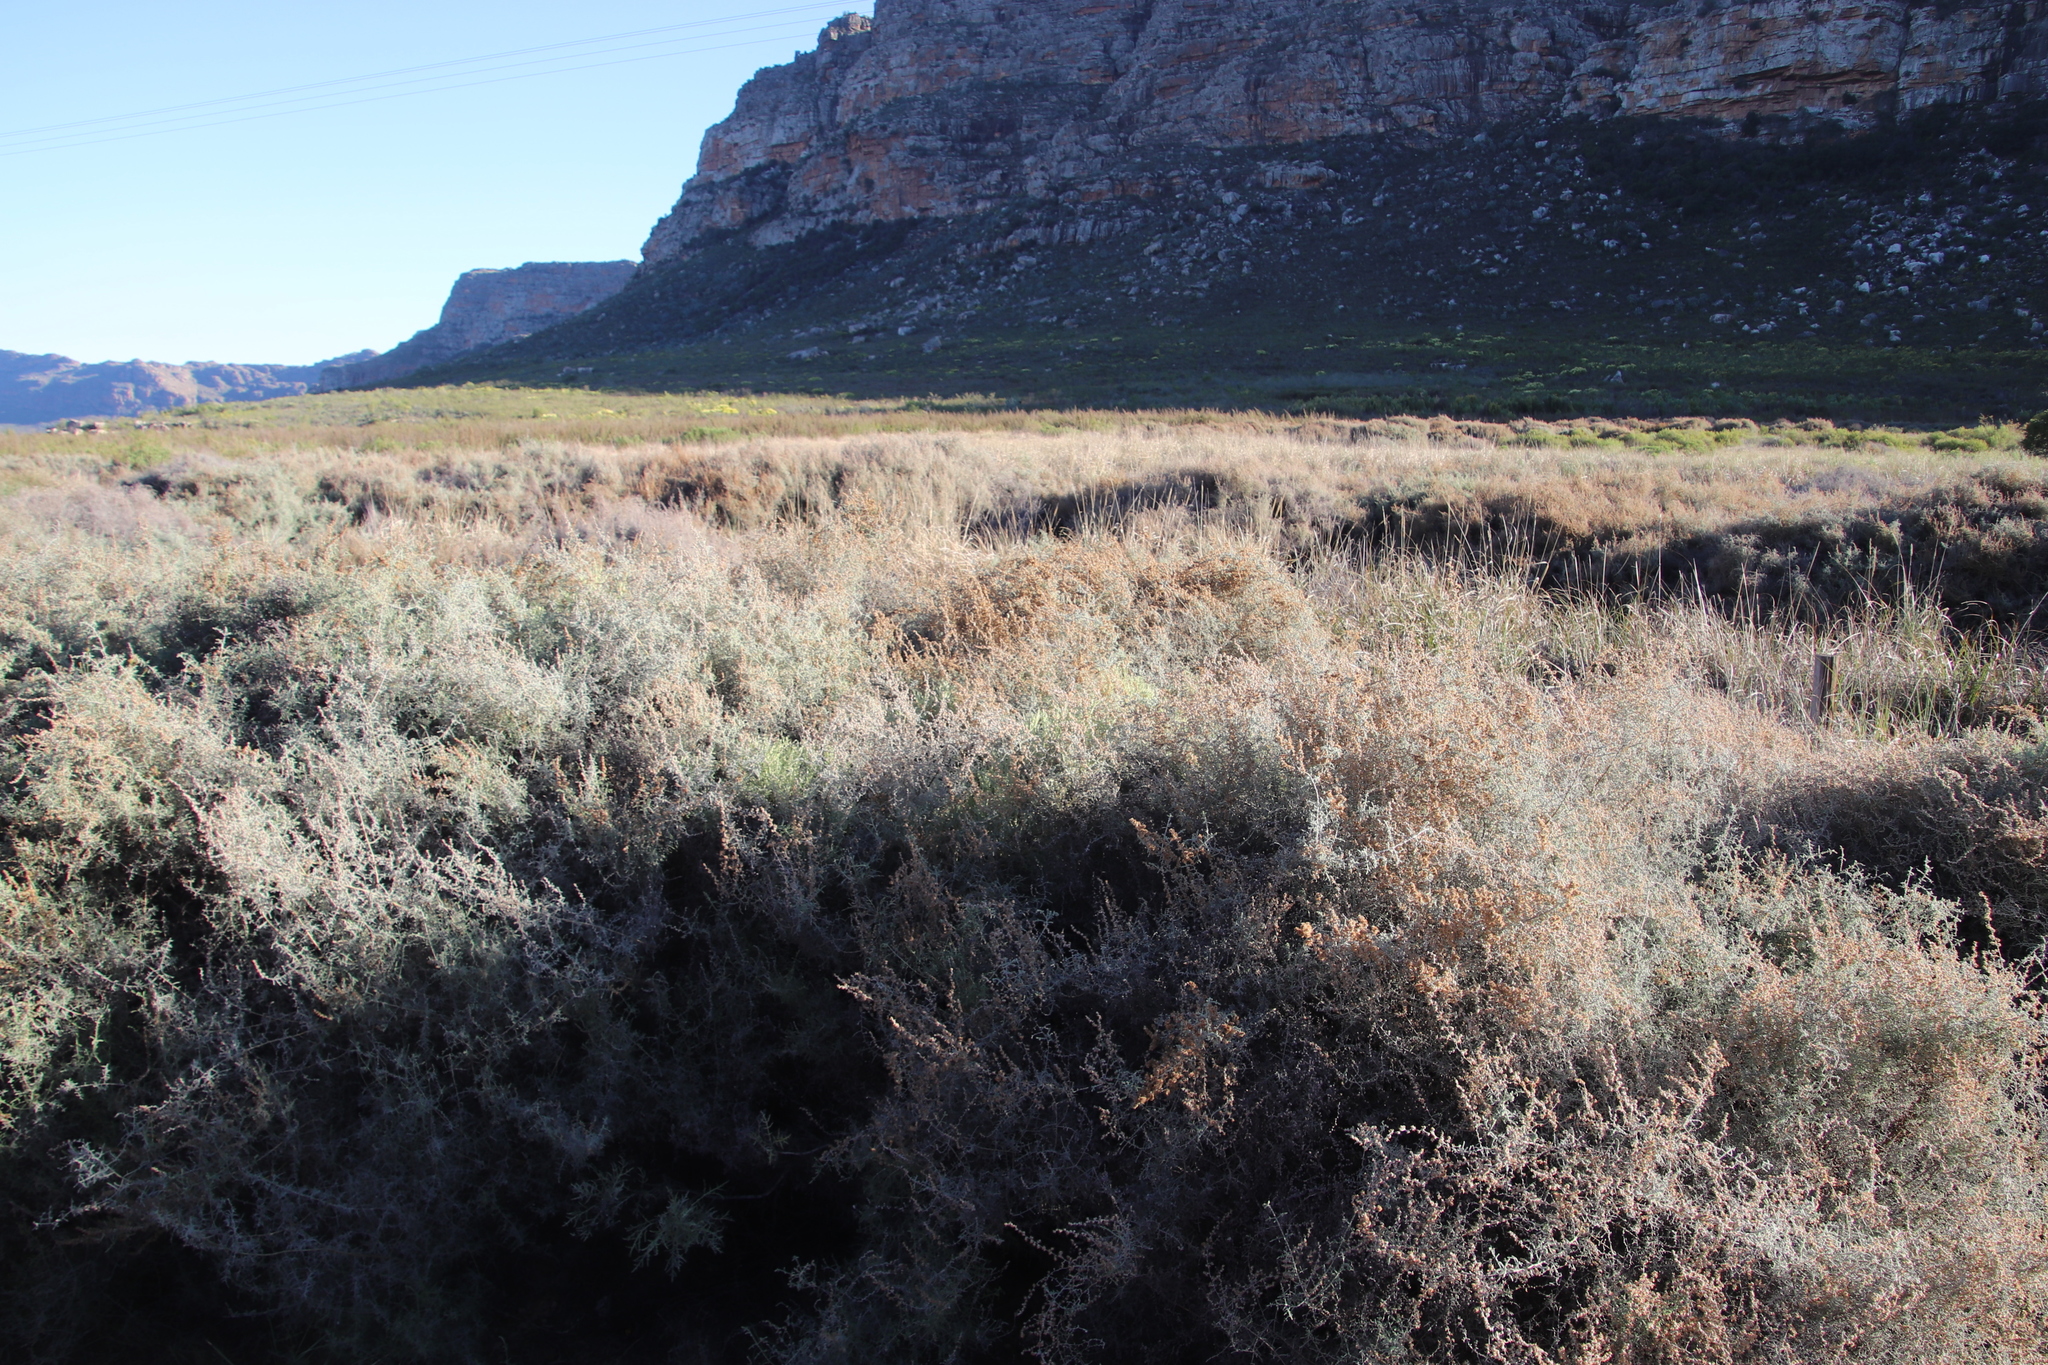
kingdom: Plantae
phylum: Tracheophyta
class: Magnoliopsida
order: Asterales
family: Asteraceae
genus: Seriphium
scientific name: Seriphium plumosum
